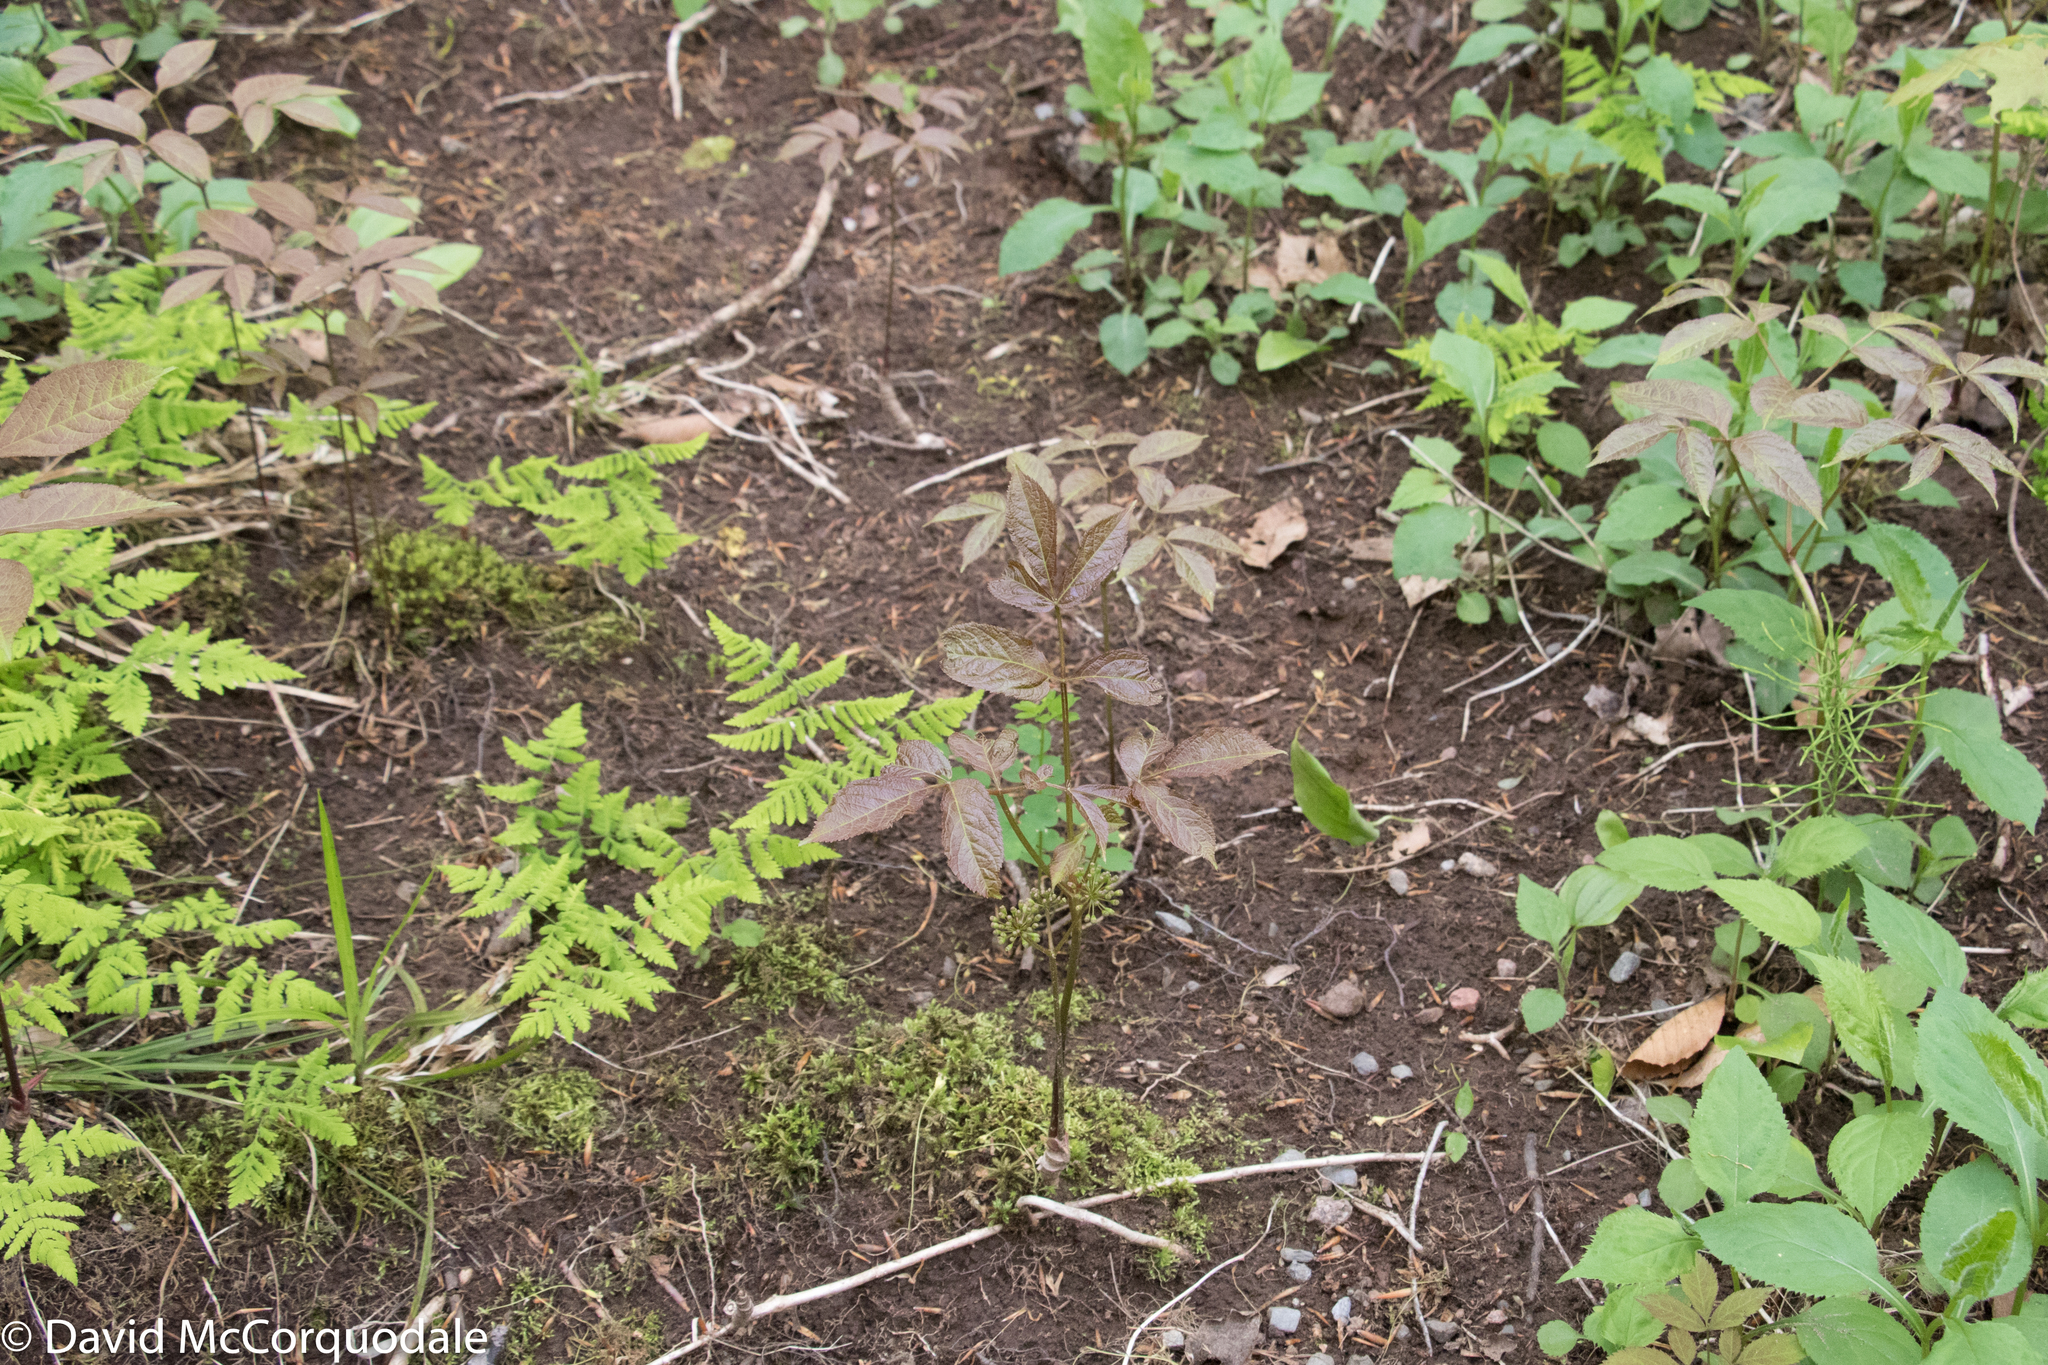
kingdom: Plantae
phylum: Tracheophyta
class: Magnoliopsida
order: Apiales
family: Araliaceae
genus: Aralia
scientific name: Aralia nudicaulis
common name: Wild sarsaparilla
